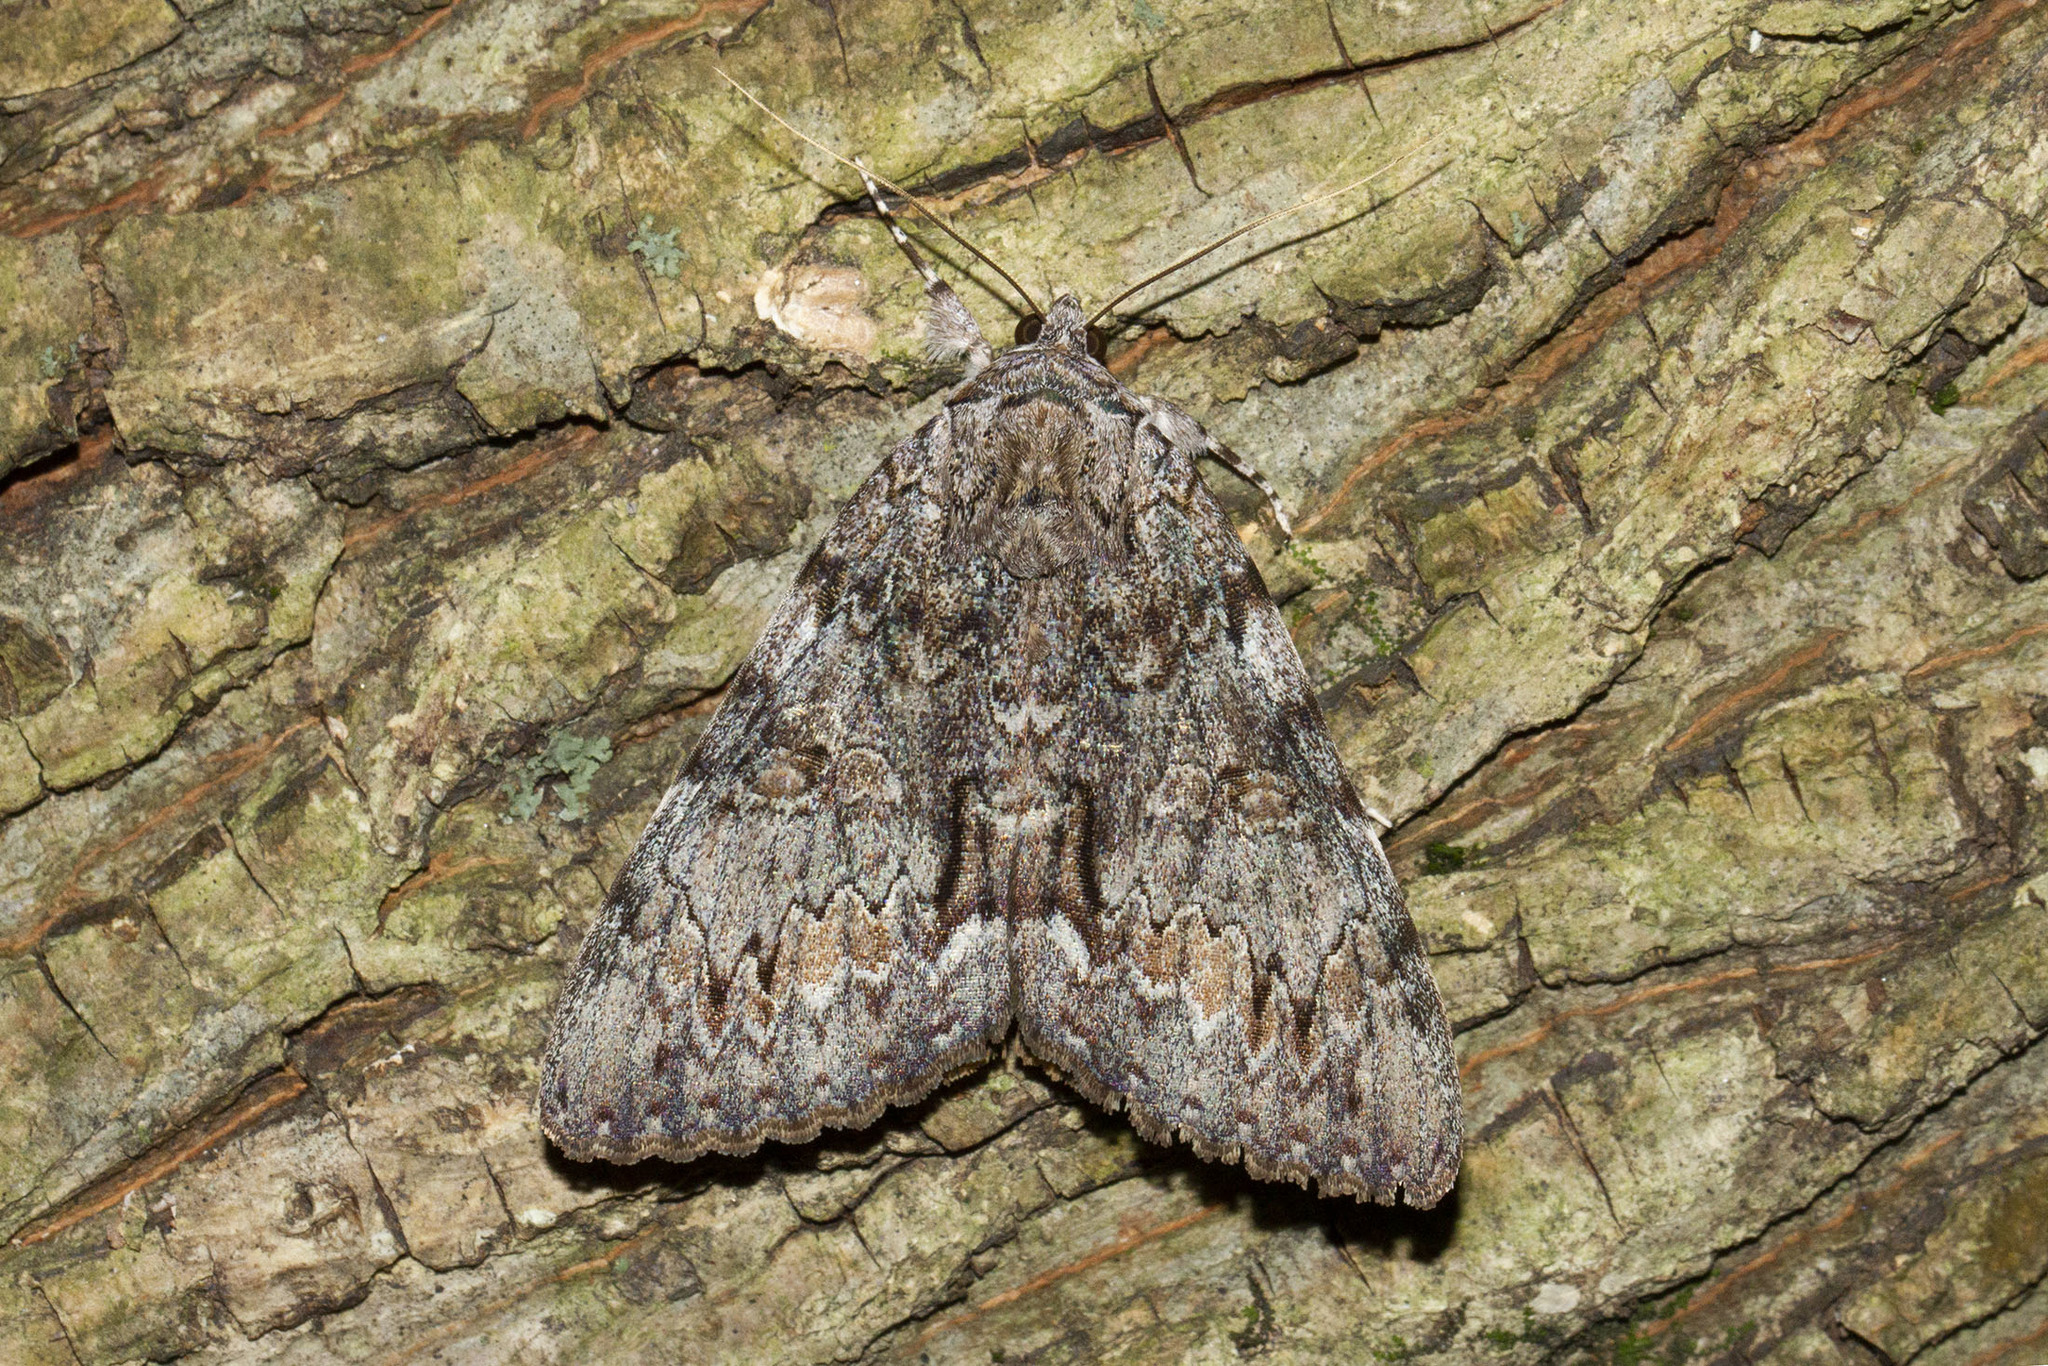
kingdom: Animalia
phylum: Arthropoda
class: Insecta
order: Lepidoptera
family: Erebidae
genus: Catocala
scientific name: Catocala palaeogama
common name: Oldwife underwing
